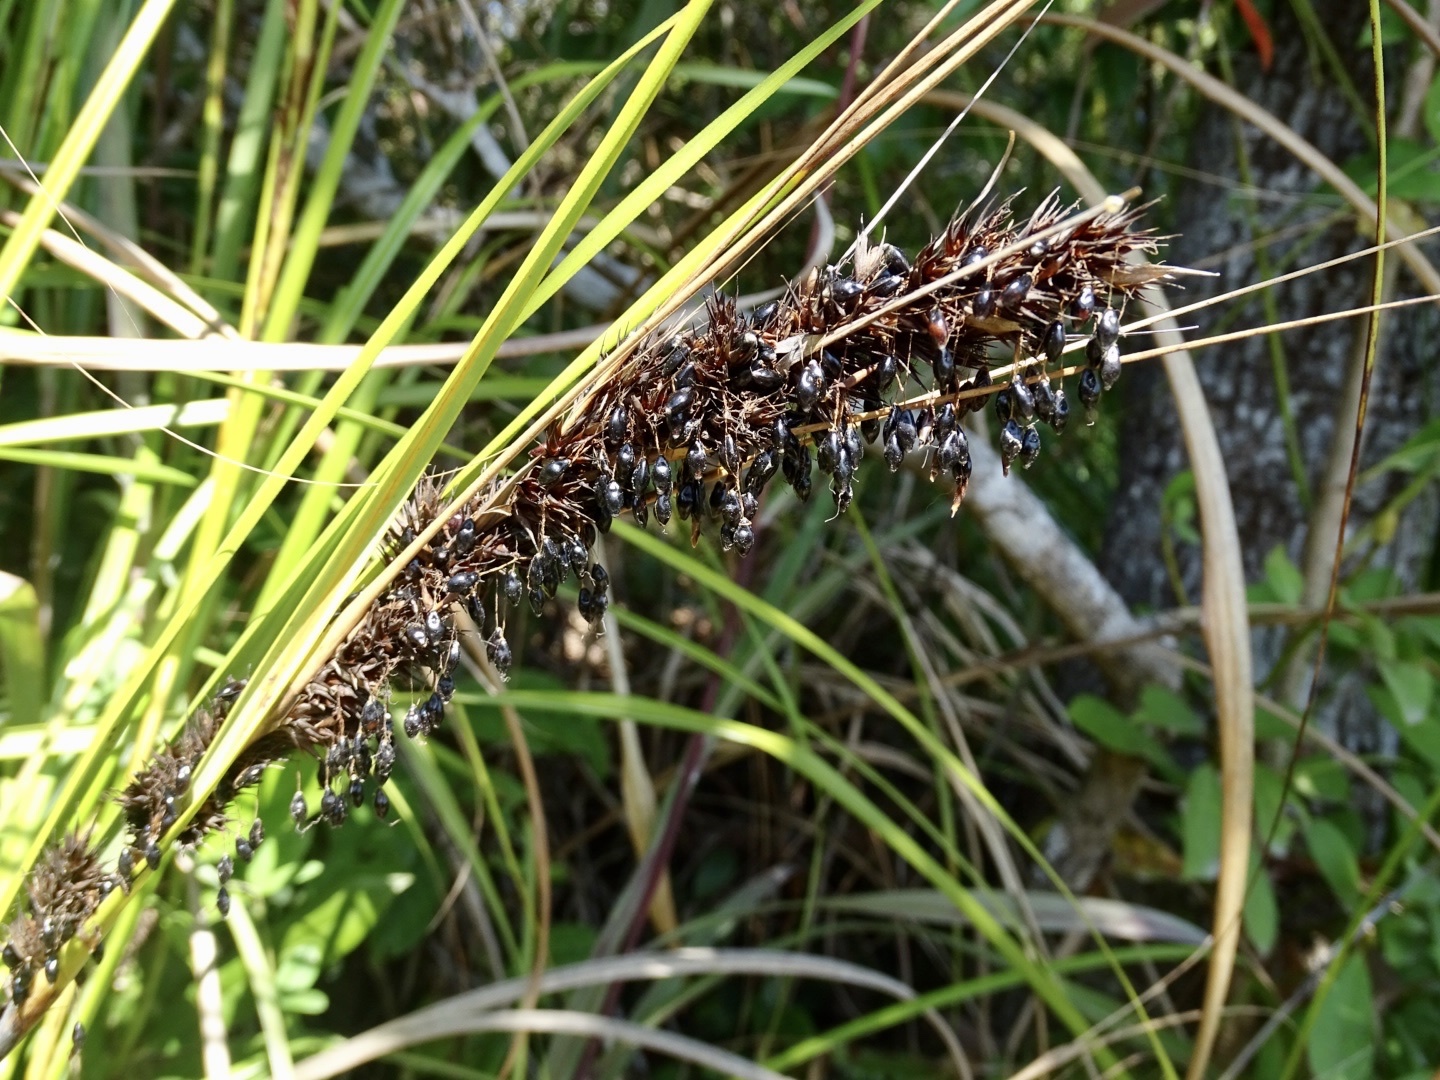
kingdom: Plantae
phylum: Tracheophyta
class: Liliopsida
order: Poales
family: Cyperaceae
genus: Gahnia
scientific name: Gahnia tristis
